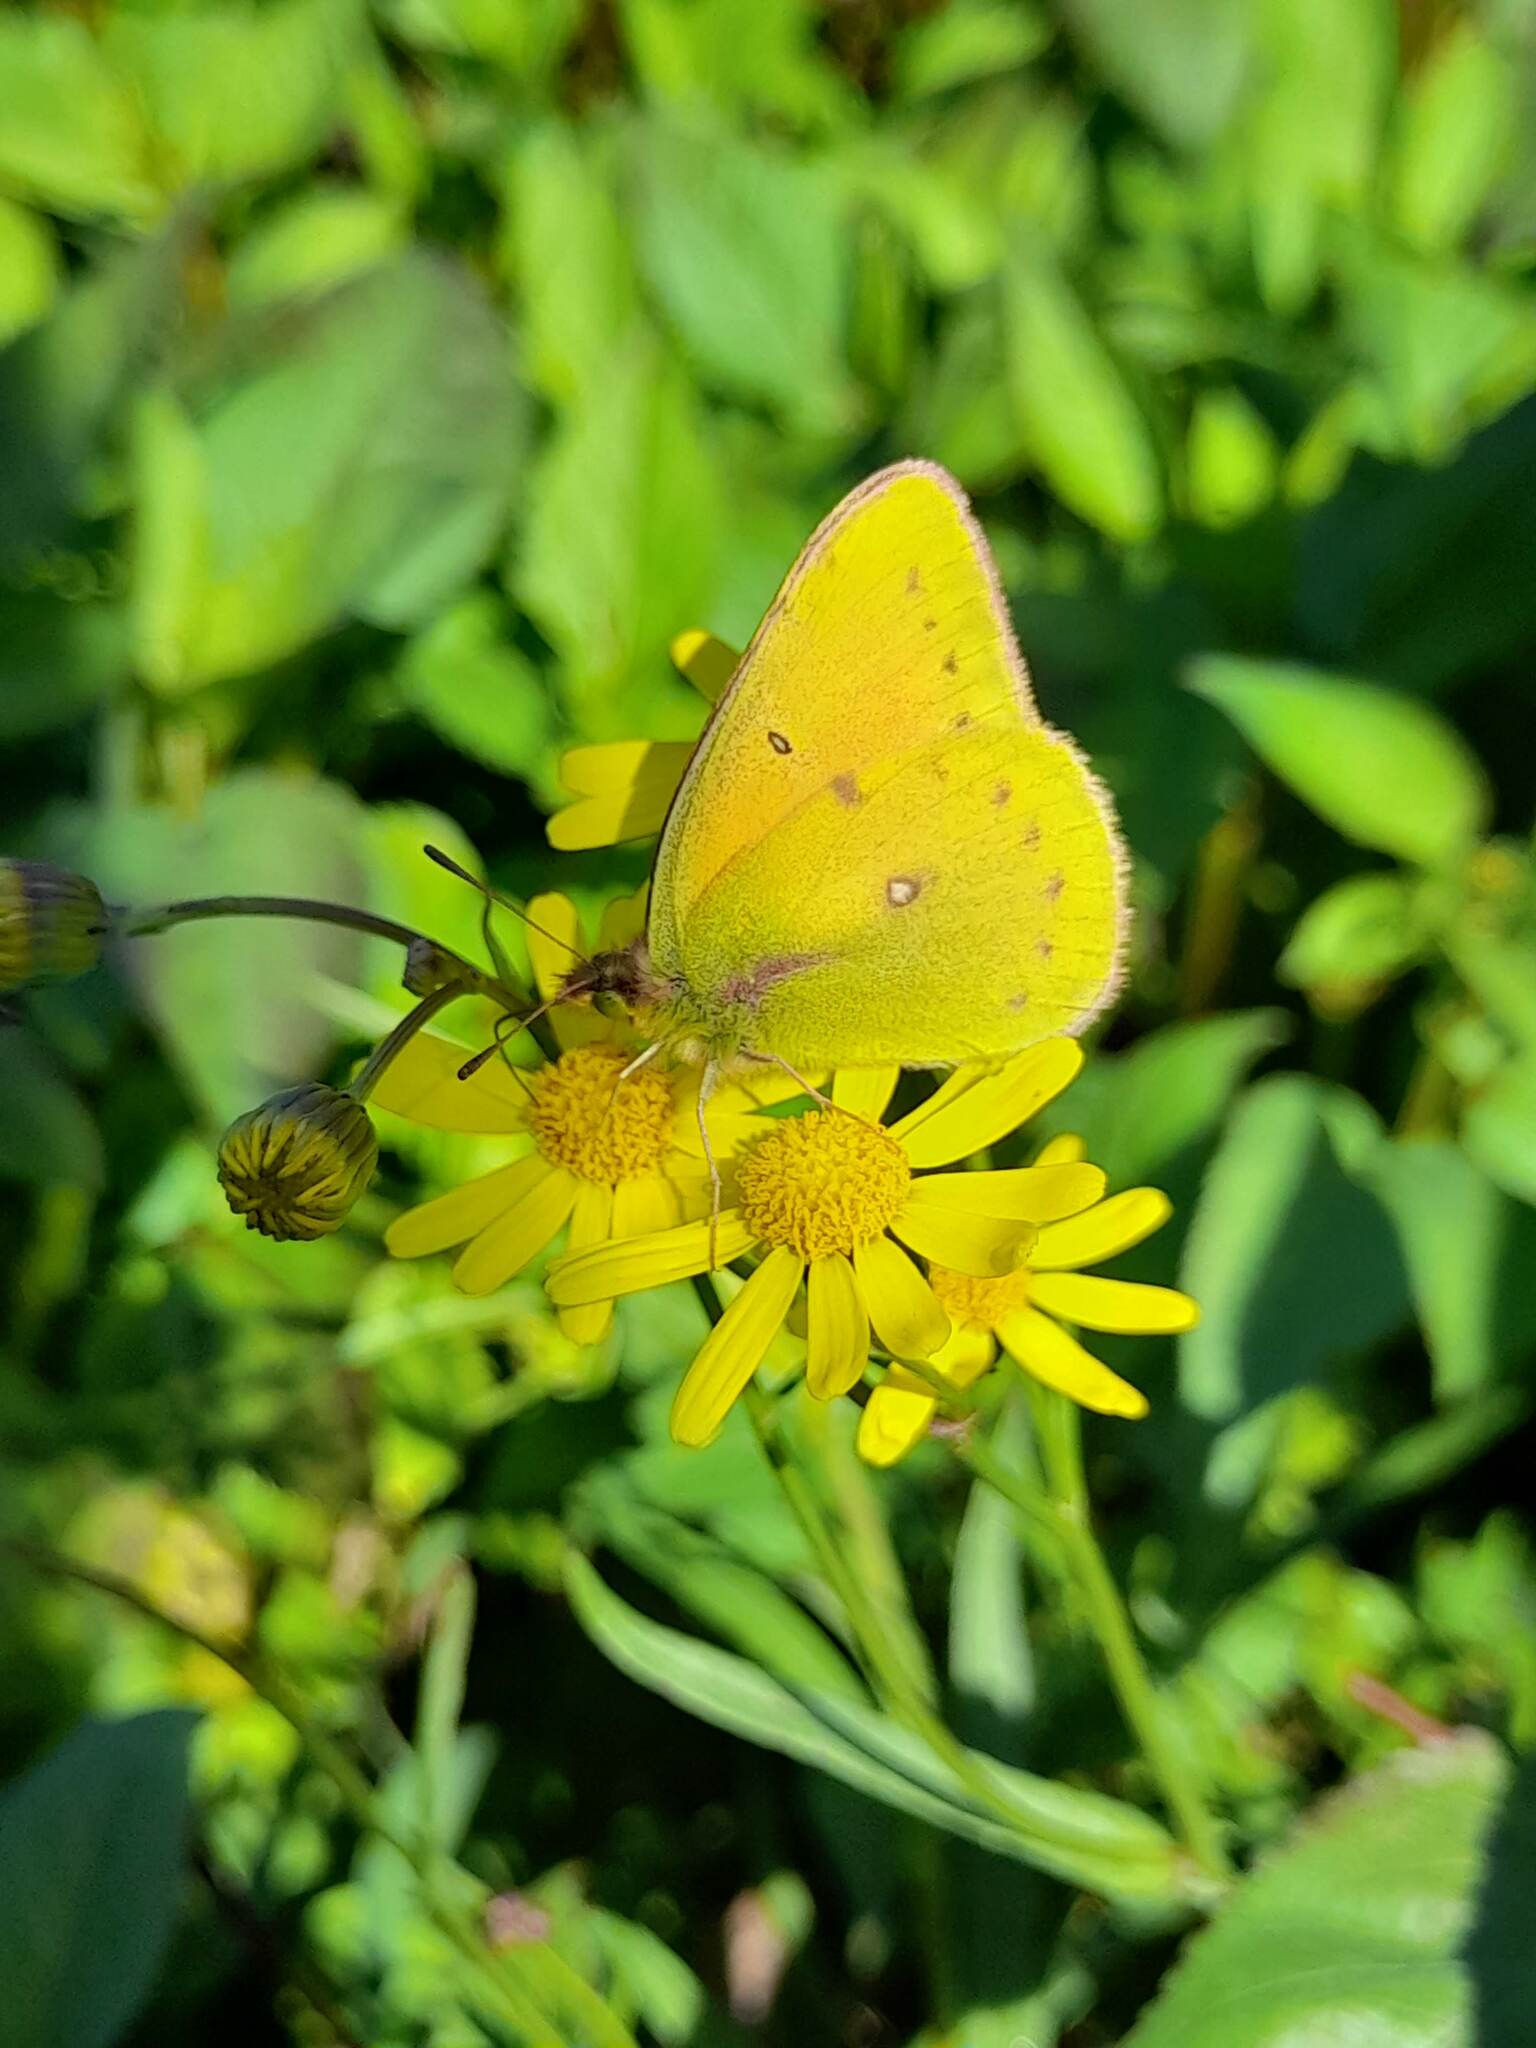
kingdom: Animalia
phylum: Arthropoda
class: Insecta
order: Lepidoptera
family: Pieridae
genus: Colias
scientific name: Colias lesbia
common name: Lesbia clouded yellow
